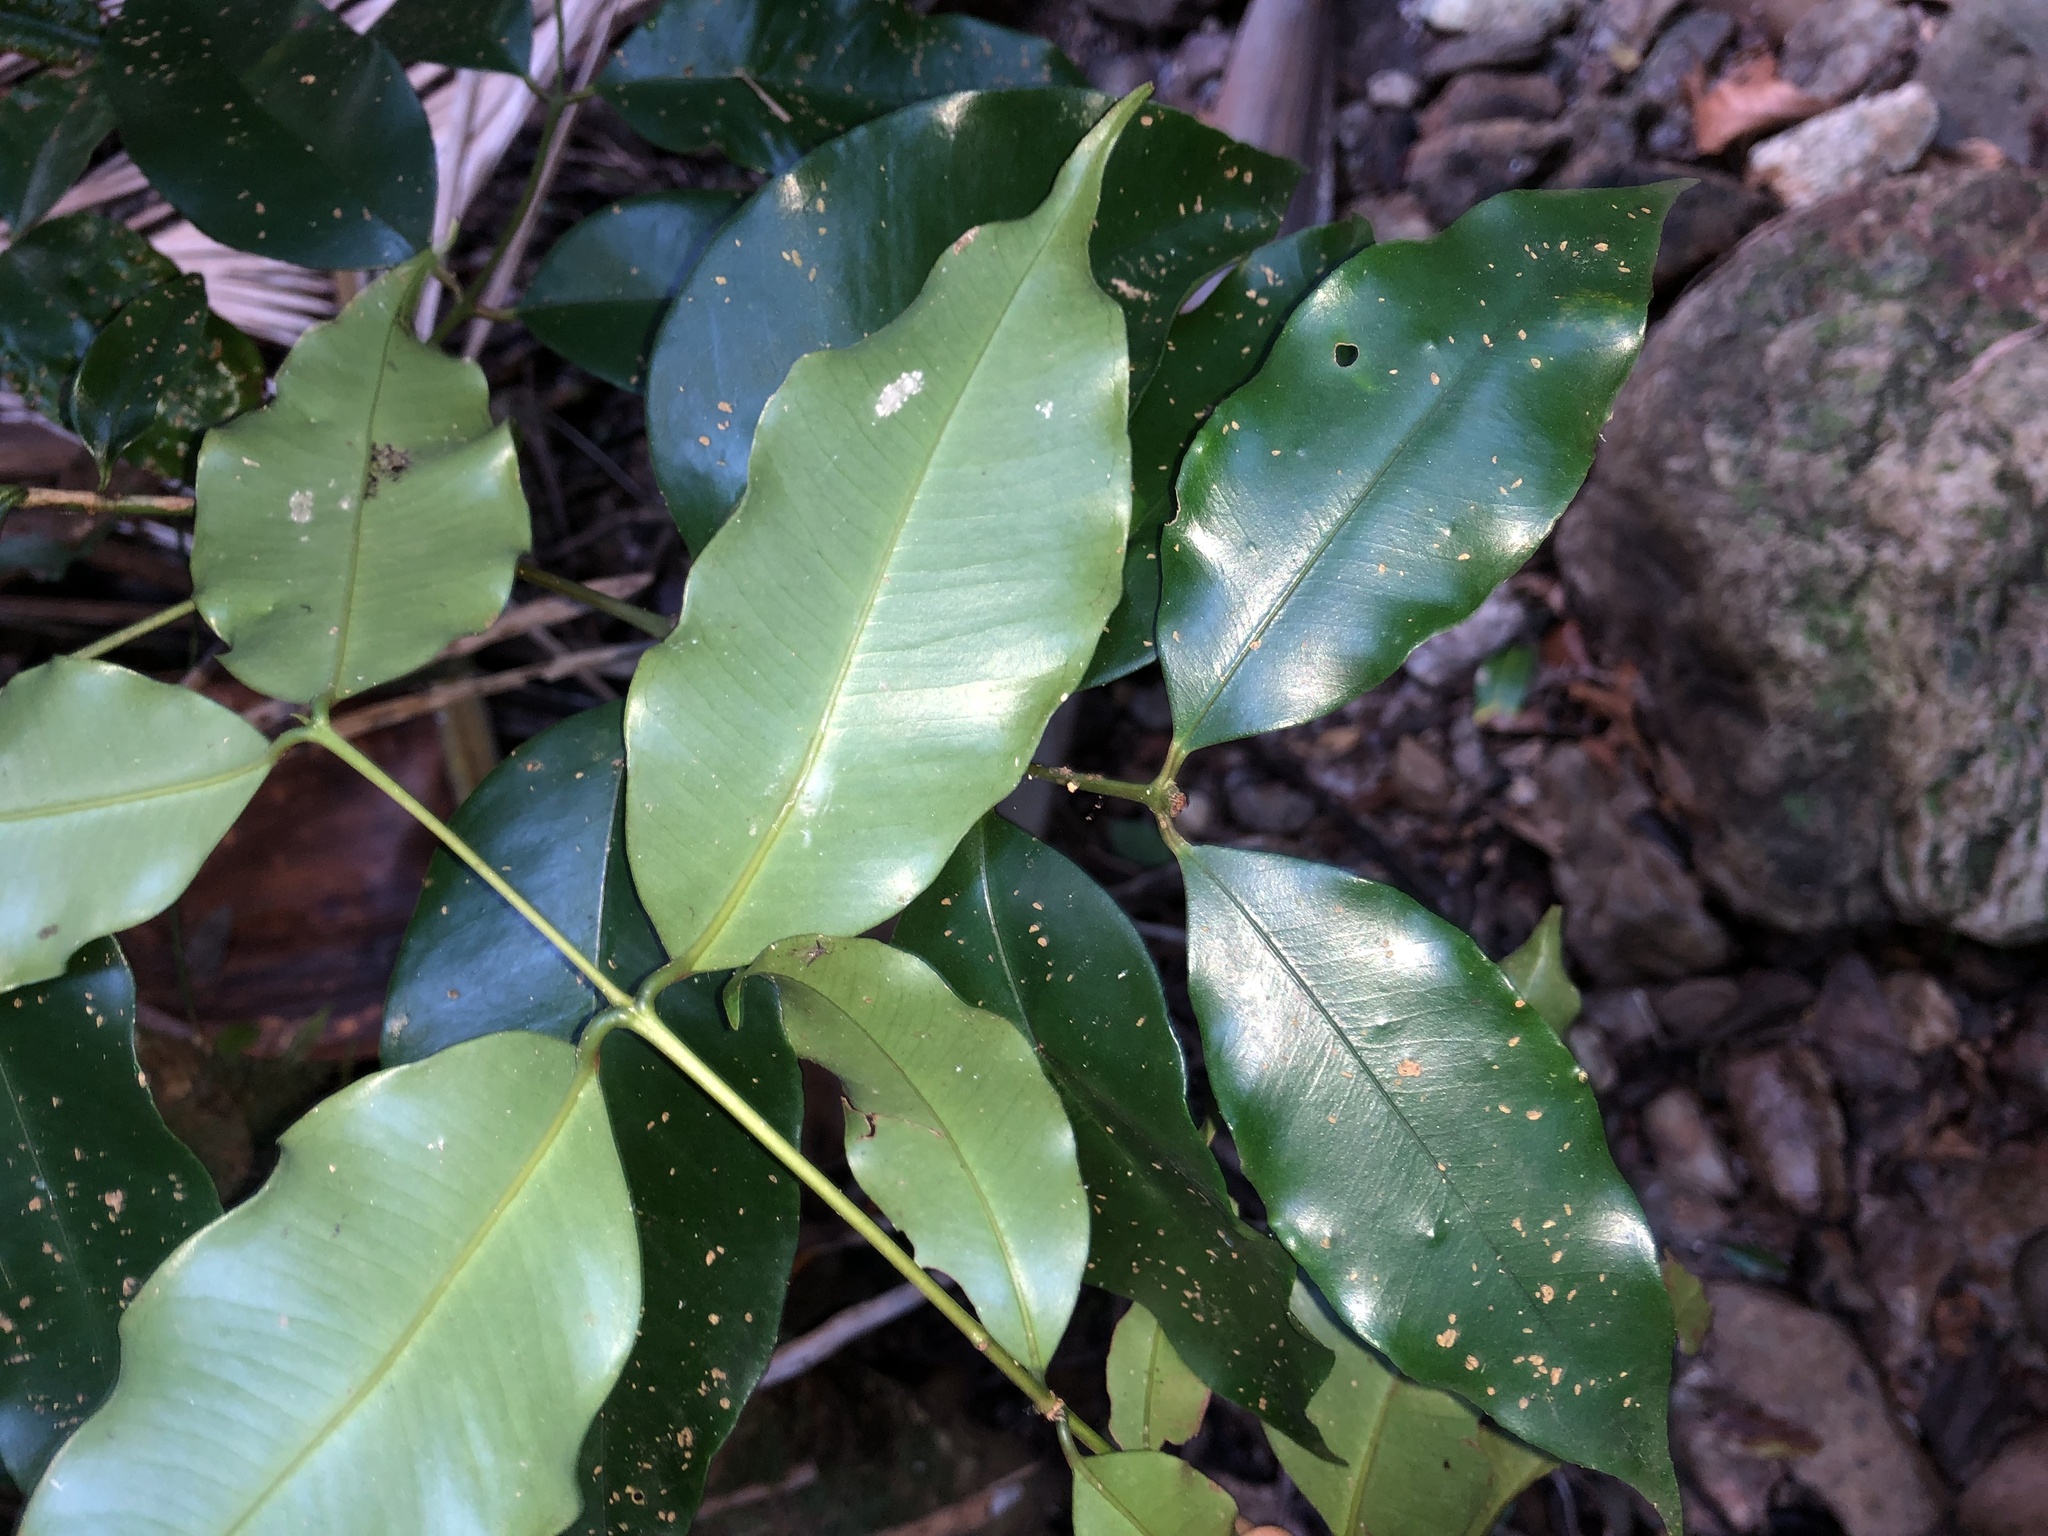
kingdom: Plantae
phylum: Tracheophyta
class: Magnoliopsida
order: Myrtales
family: Myrtaceae
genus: Syzygium
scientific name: Syzygium crebrinerve
